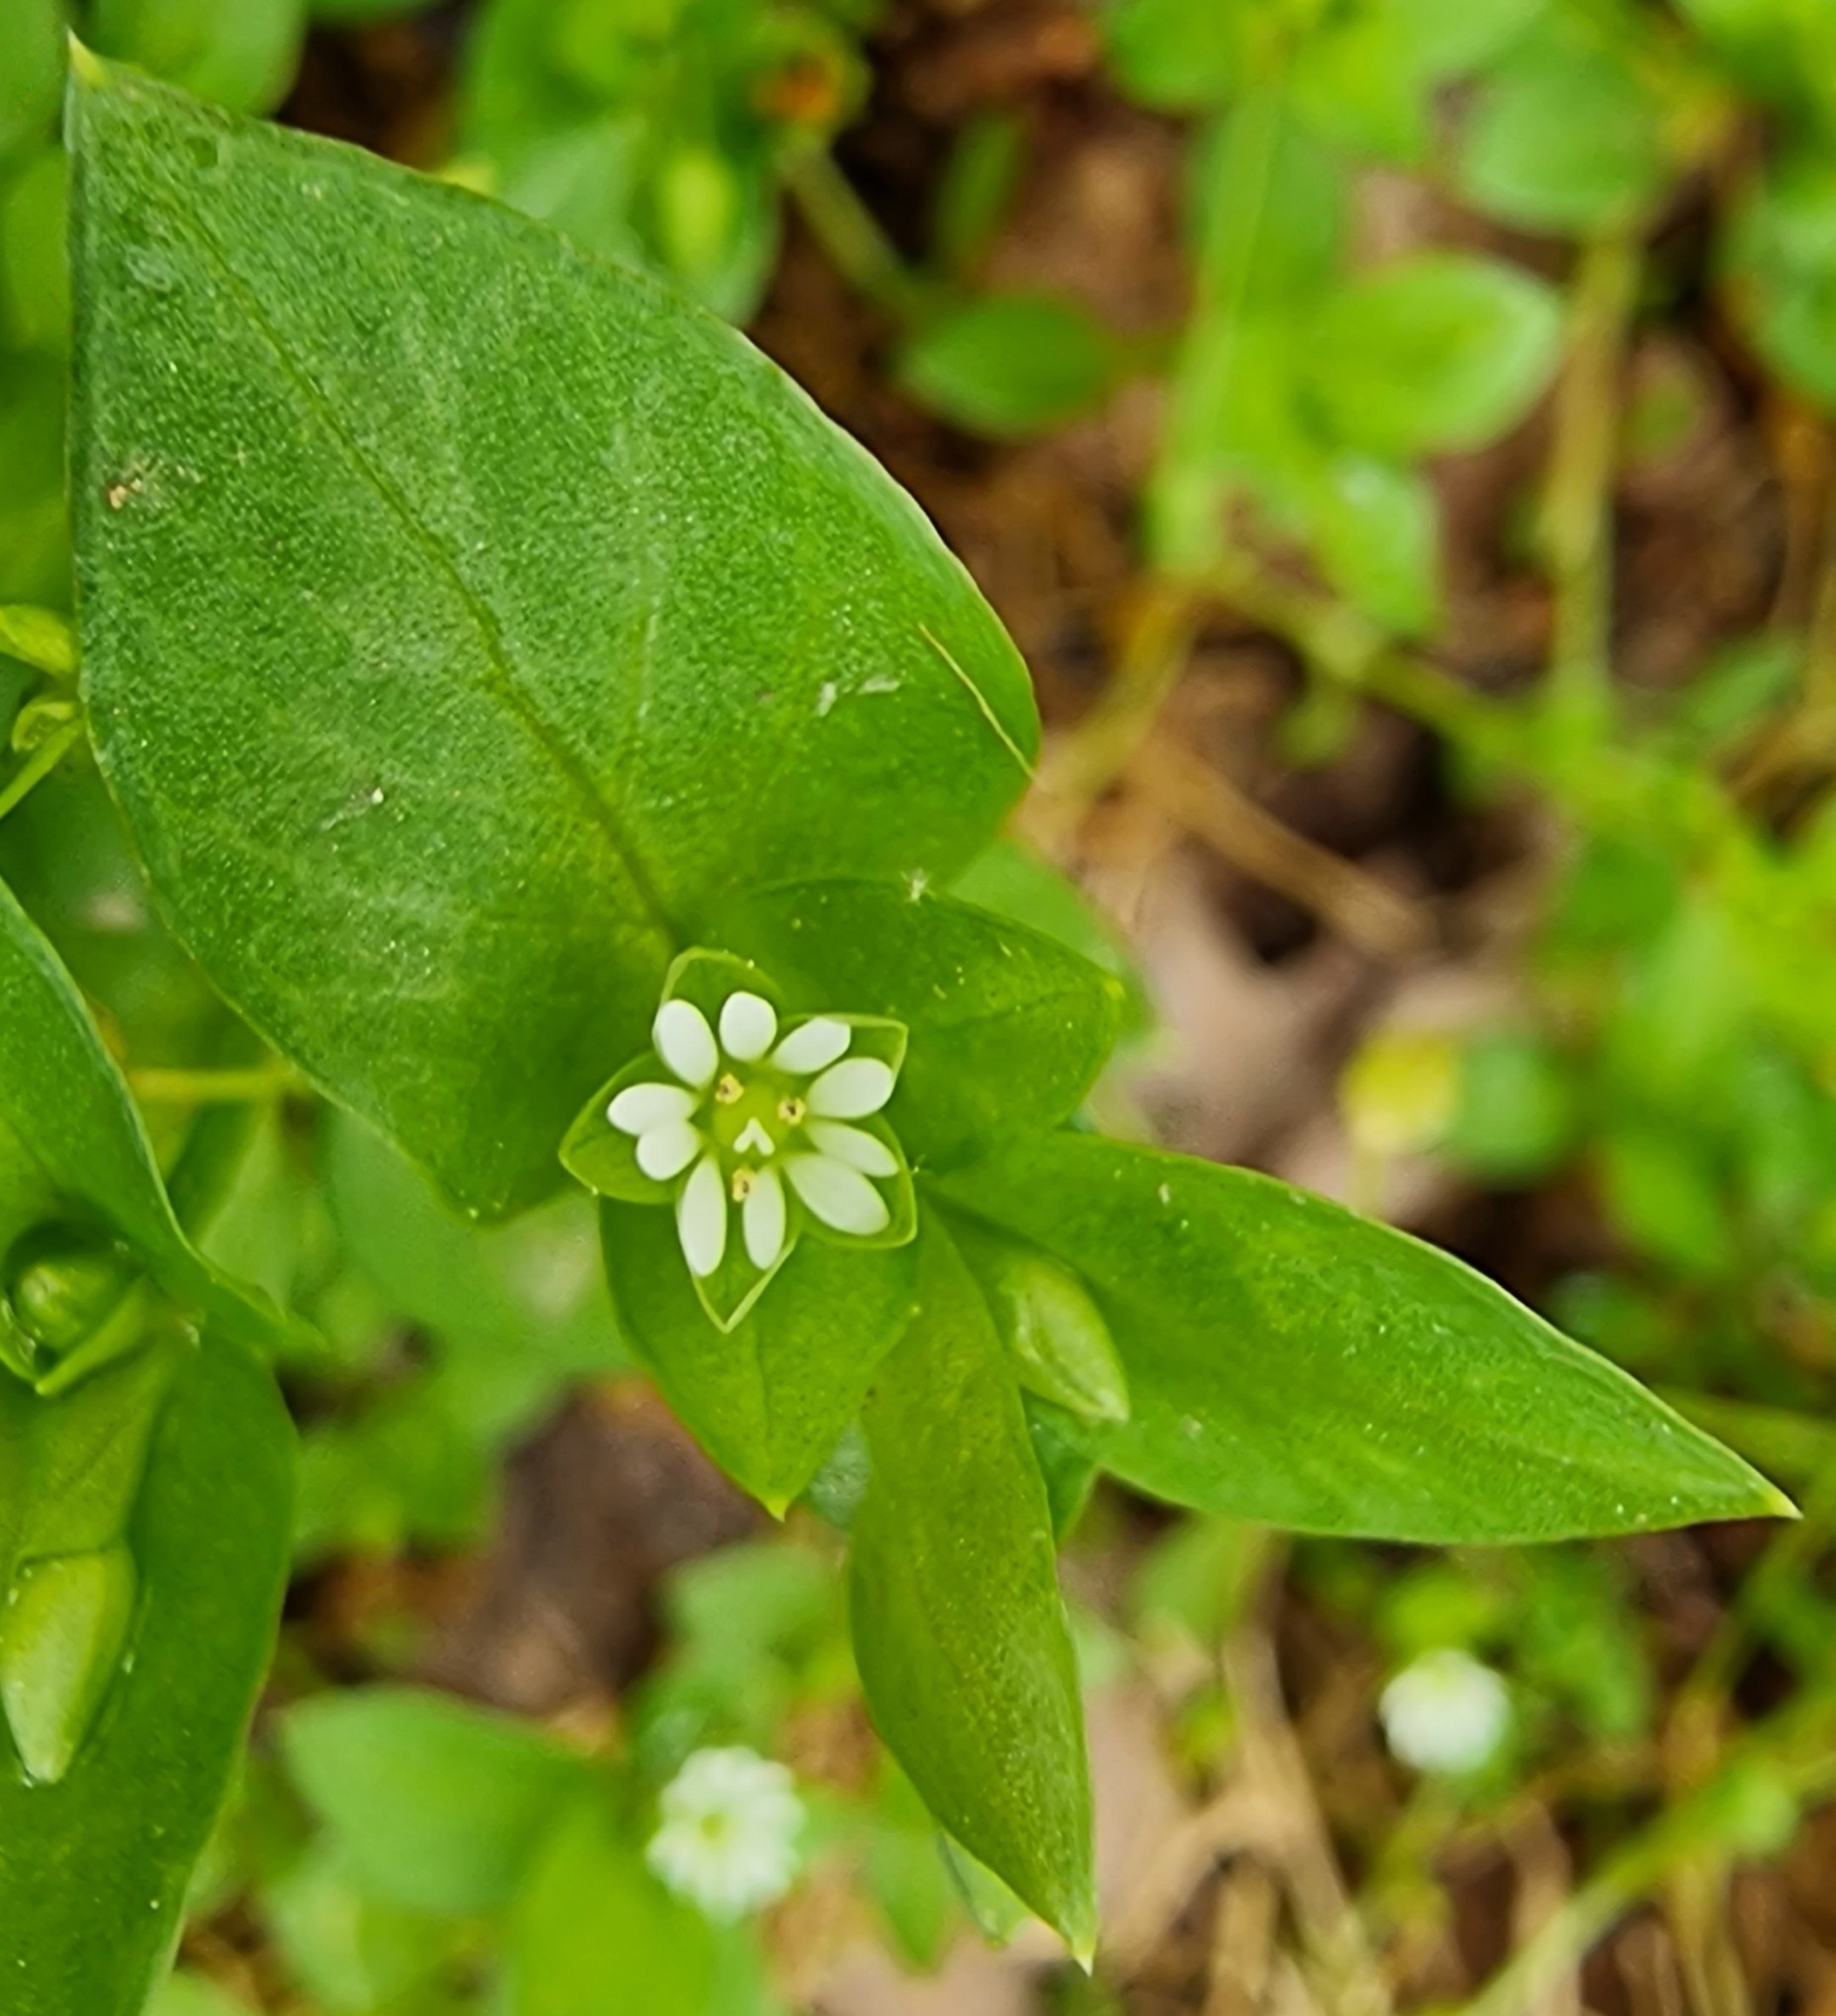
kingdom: Plantae
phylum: Tracheophyta
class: Magnoliopsida
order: Caryophyllales
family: Caryophyllaceae
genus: Stellaria
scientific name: Stellaria media
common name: Common chickweed
